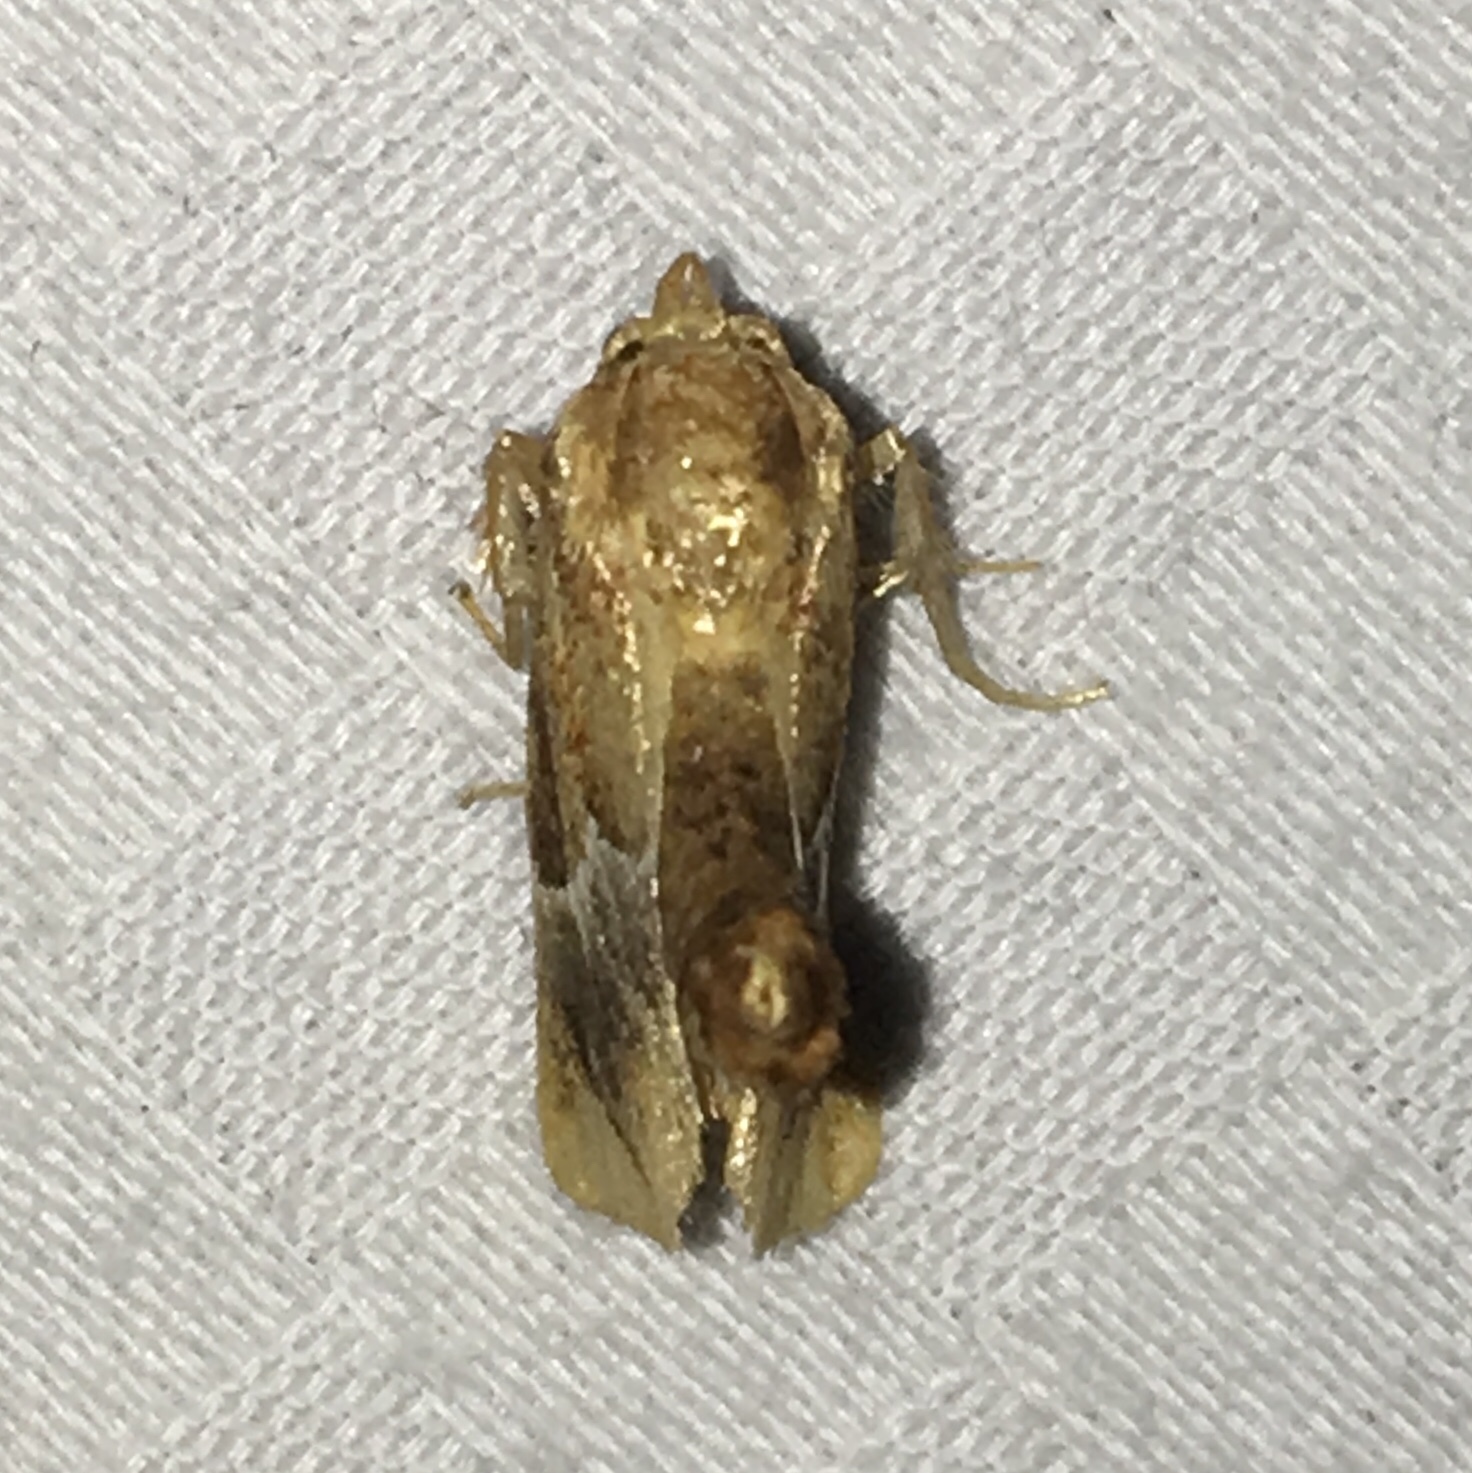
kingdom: Animalia
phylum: Arthropoda
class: Insecta
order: Lepidoptera
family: Limacodidae
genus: Lithacodes
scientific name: Lithacodes fasciola
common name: Yellow-shouldered slug moth
